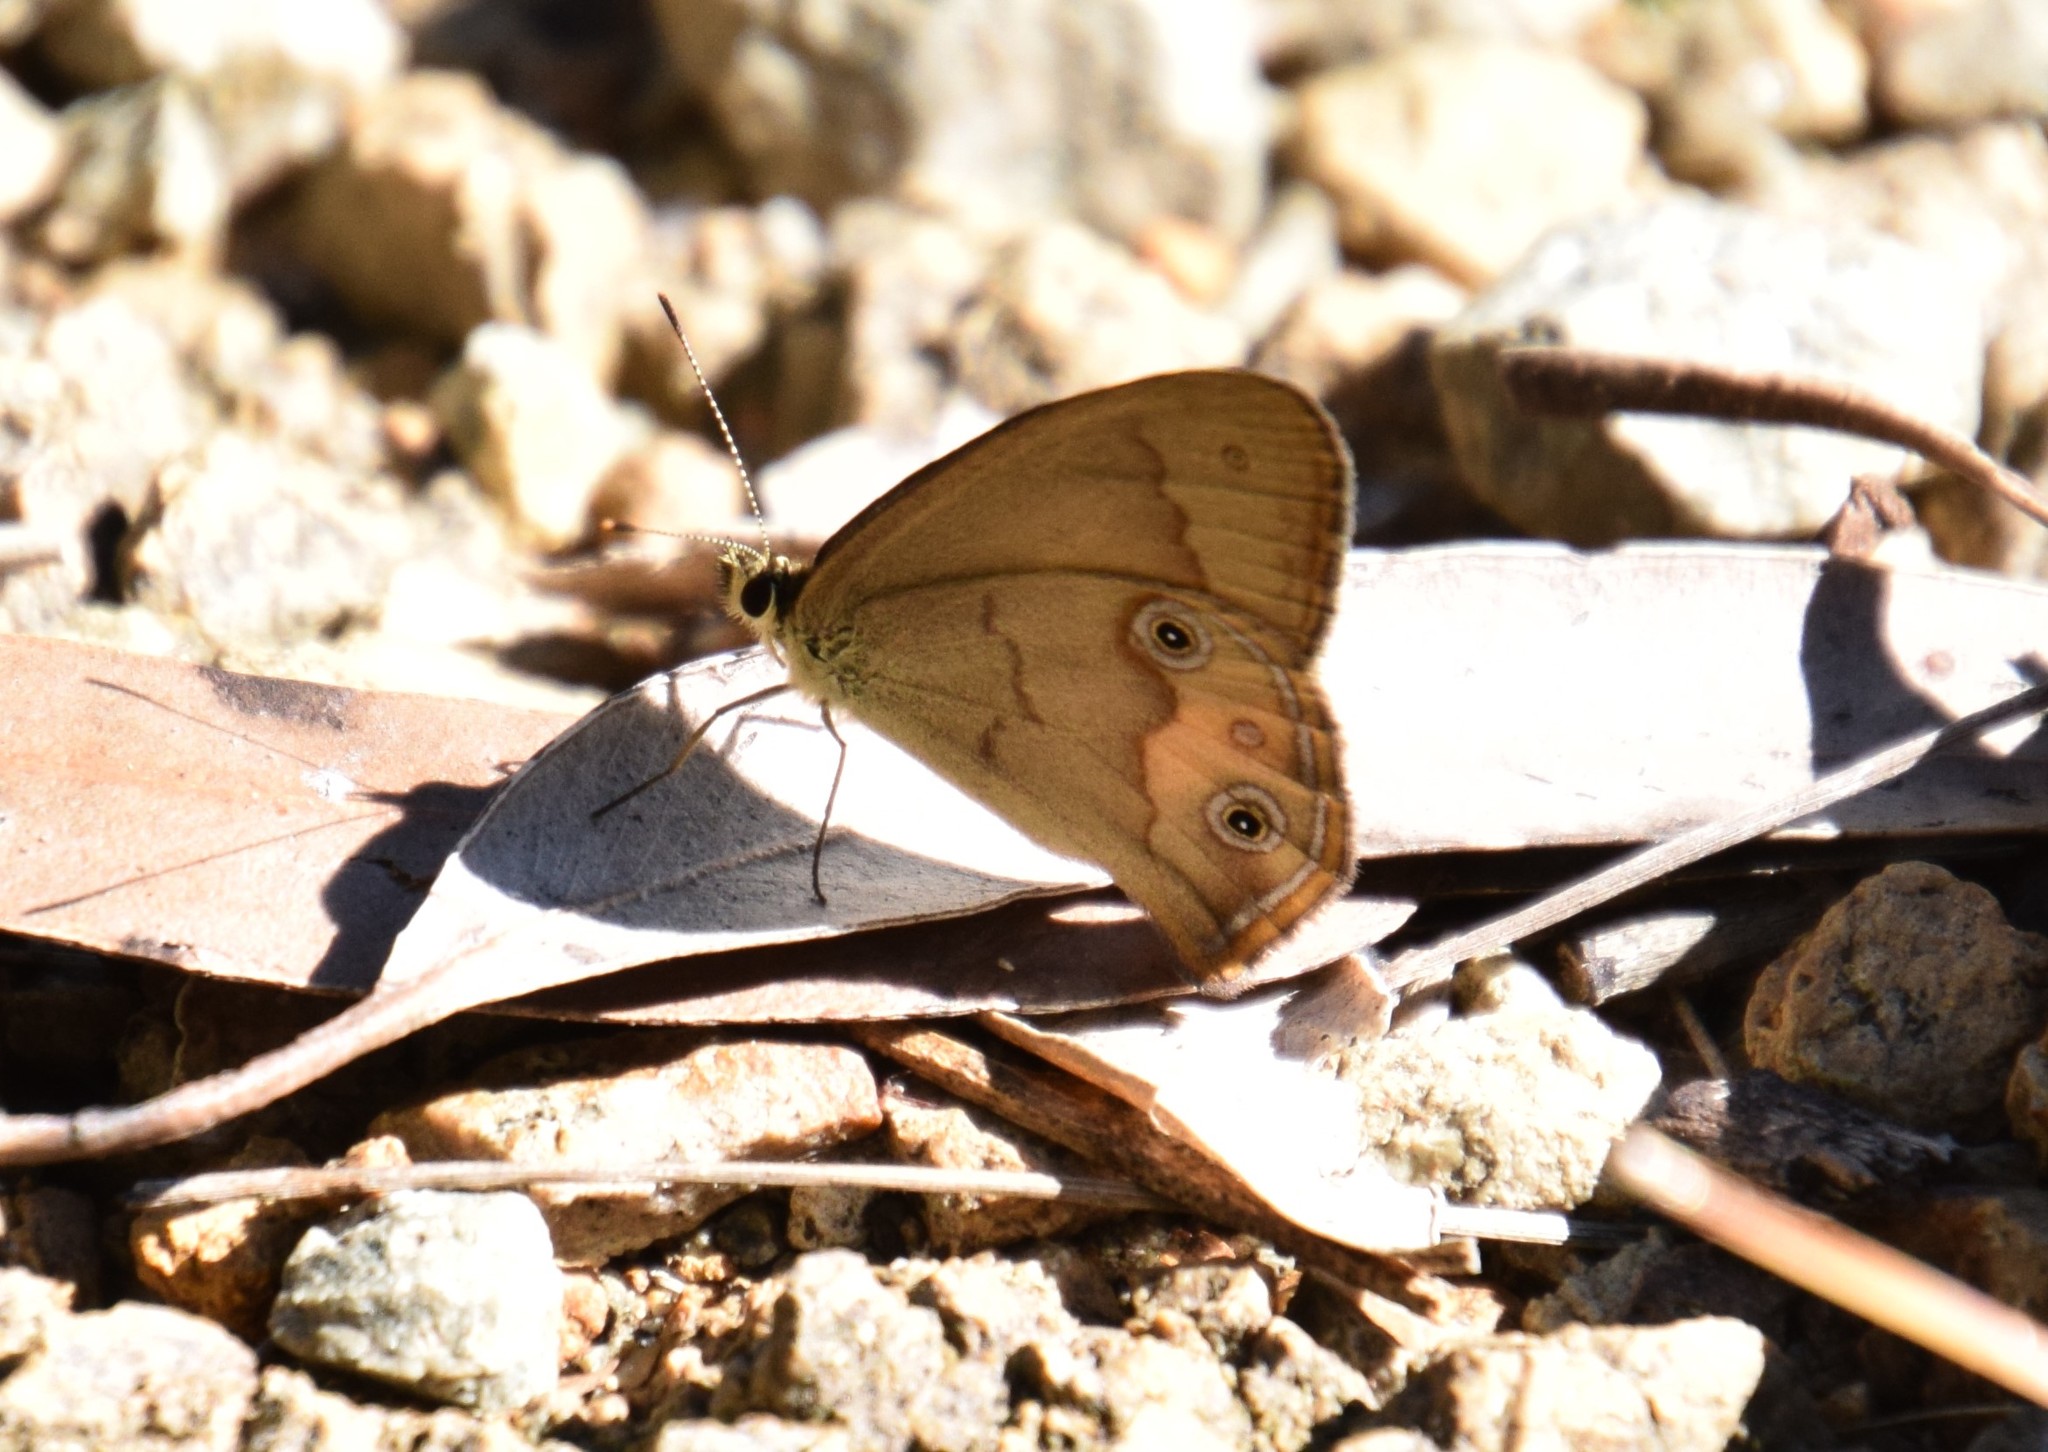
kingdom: Animalia
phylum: Arthropoda
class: Insecta
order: Lepidoptera
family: Nymphalidae
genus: Hypocysta
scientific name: Hypocysta metirius
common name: Brown ringlet
